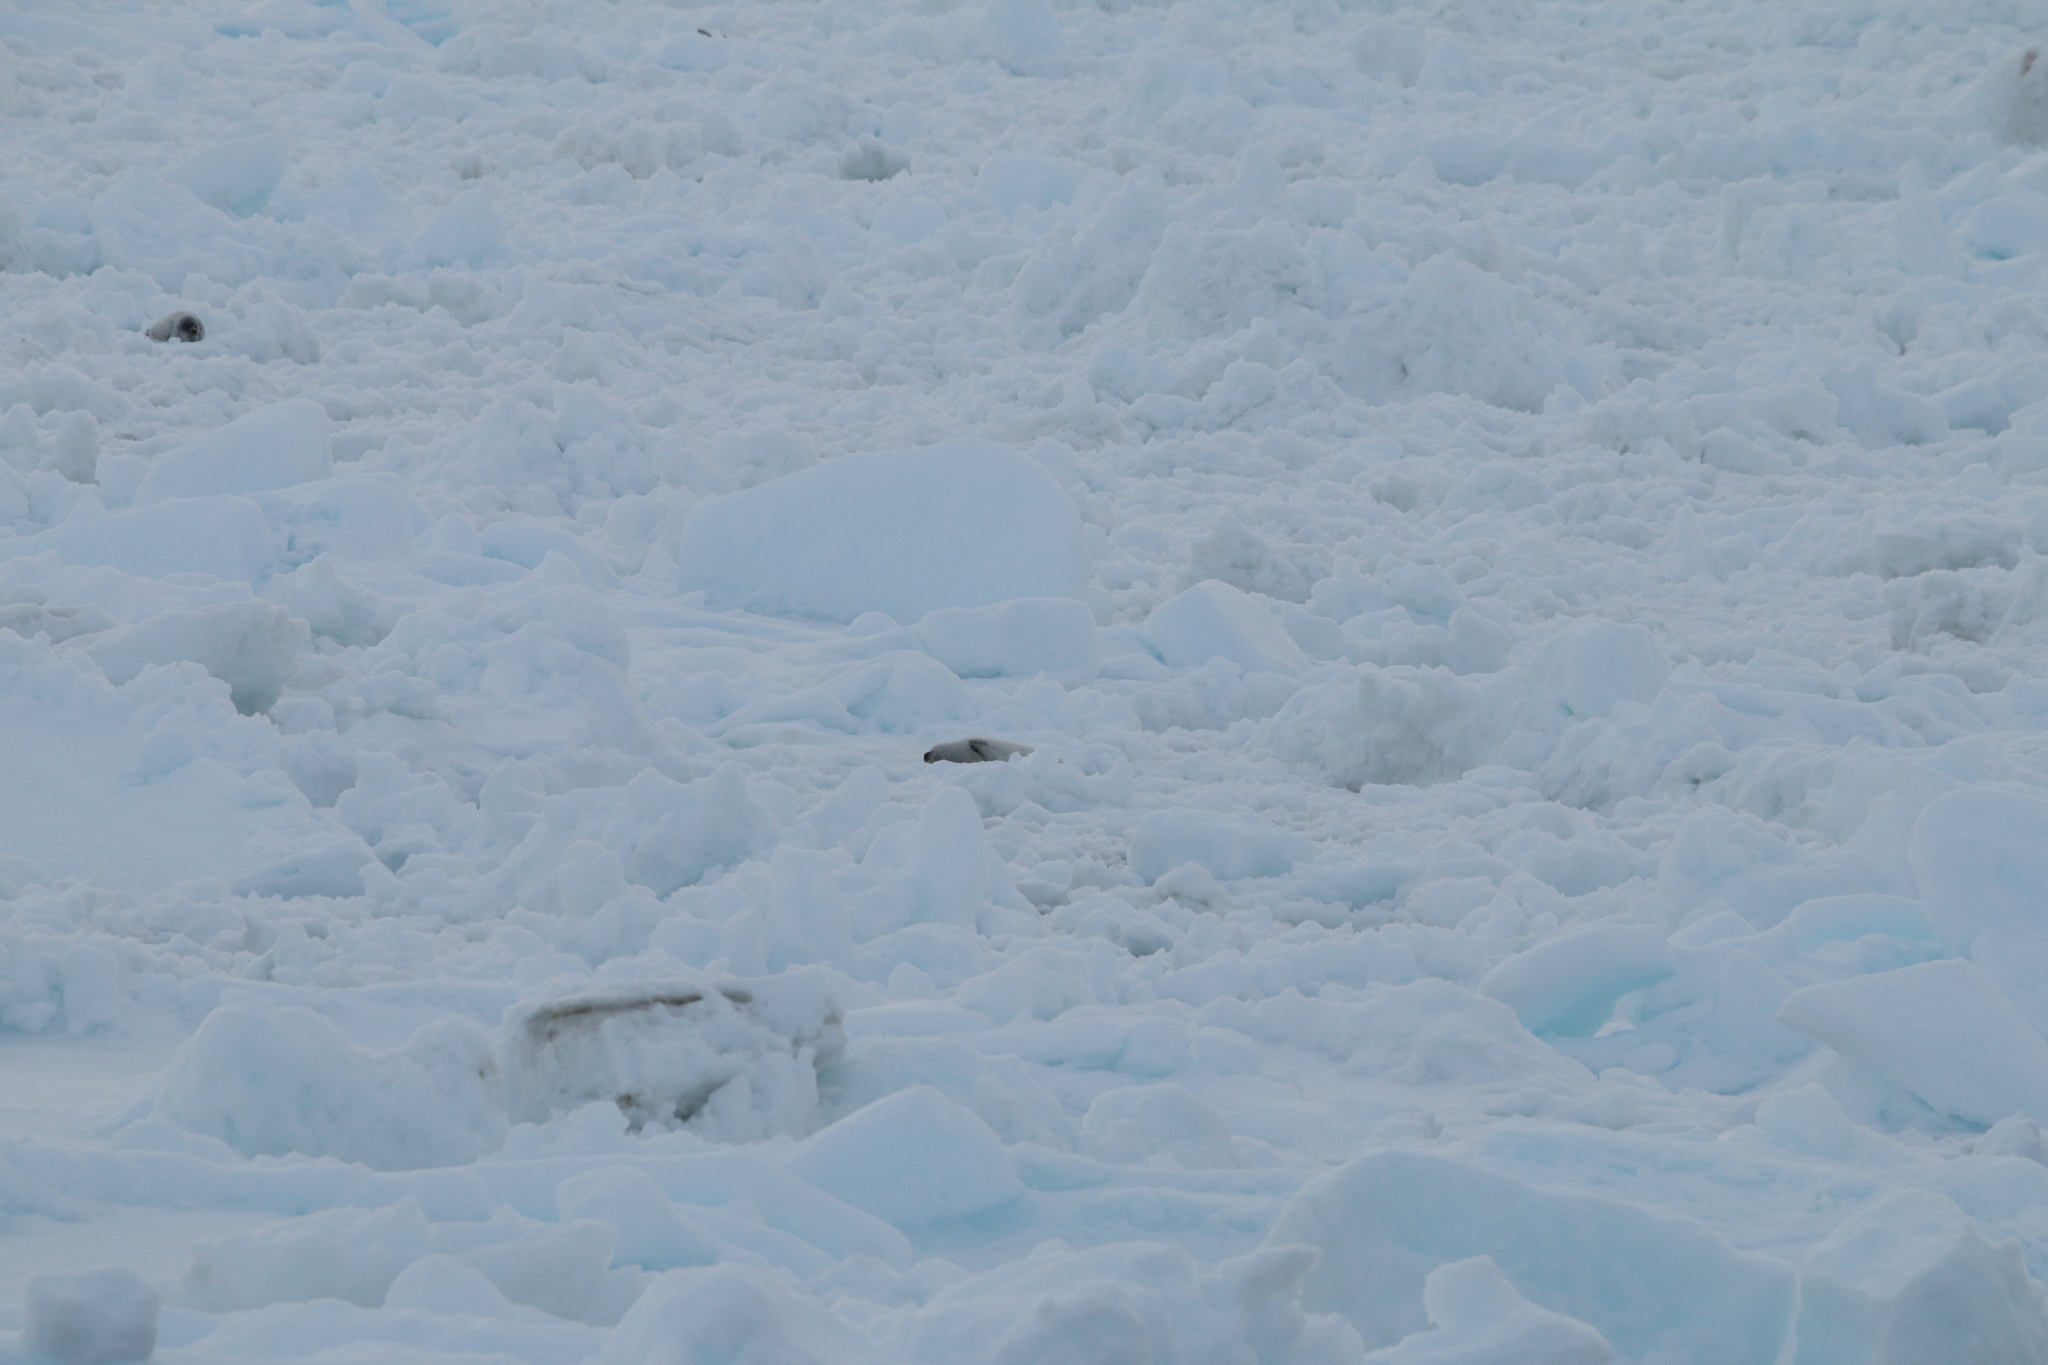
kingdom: Animalia
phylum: Chordata
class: Mammalia
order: Carnivora
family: Phocidae
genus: Pagophilus
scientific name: Pagophilus groenlandicus
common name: Harp seal
